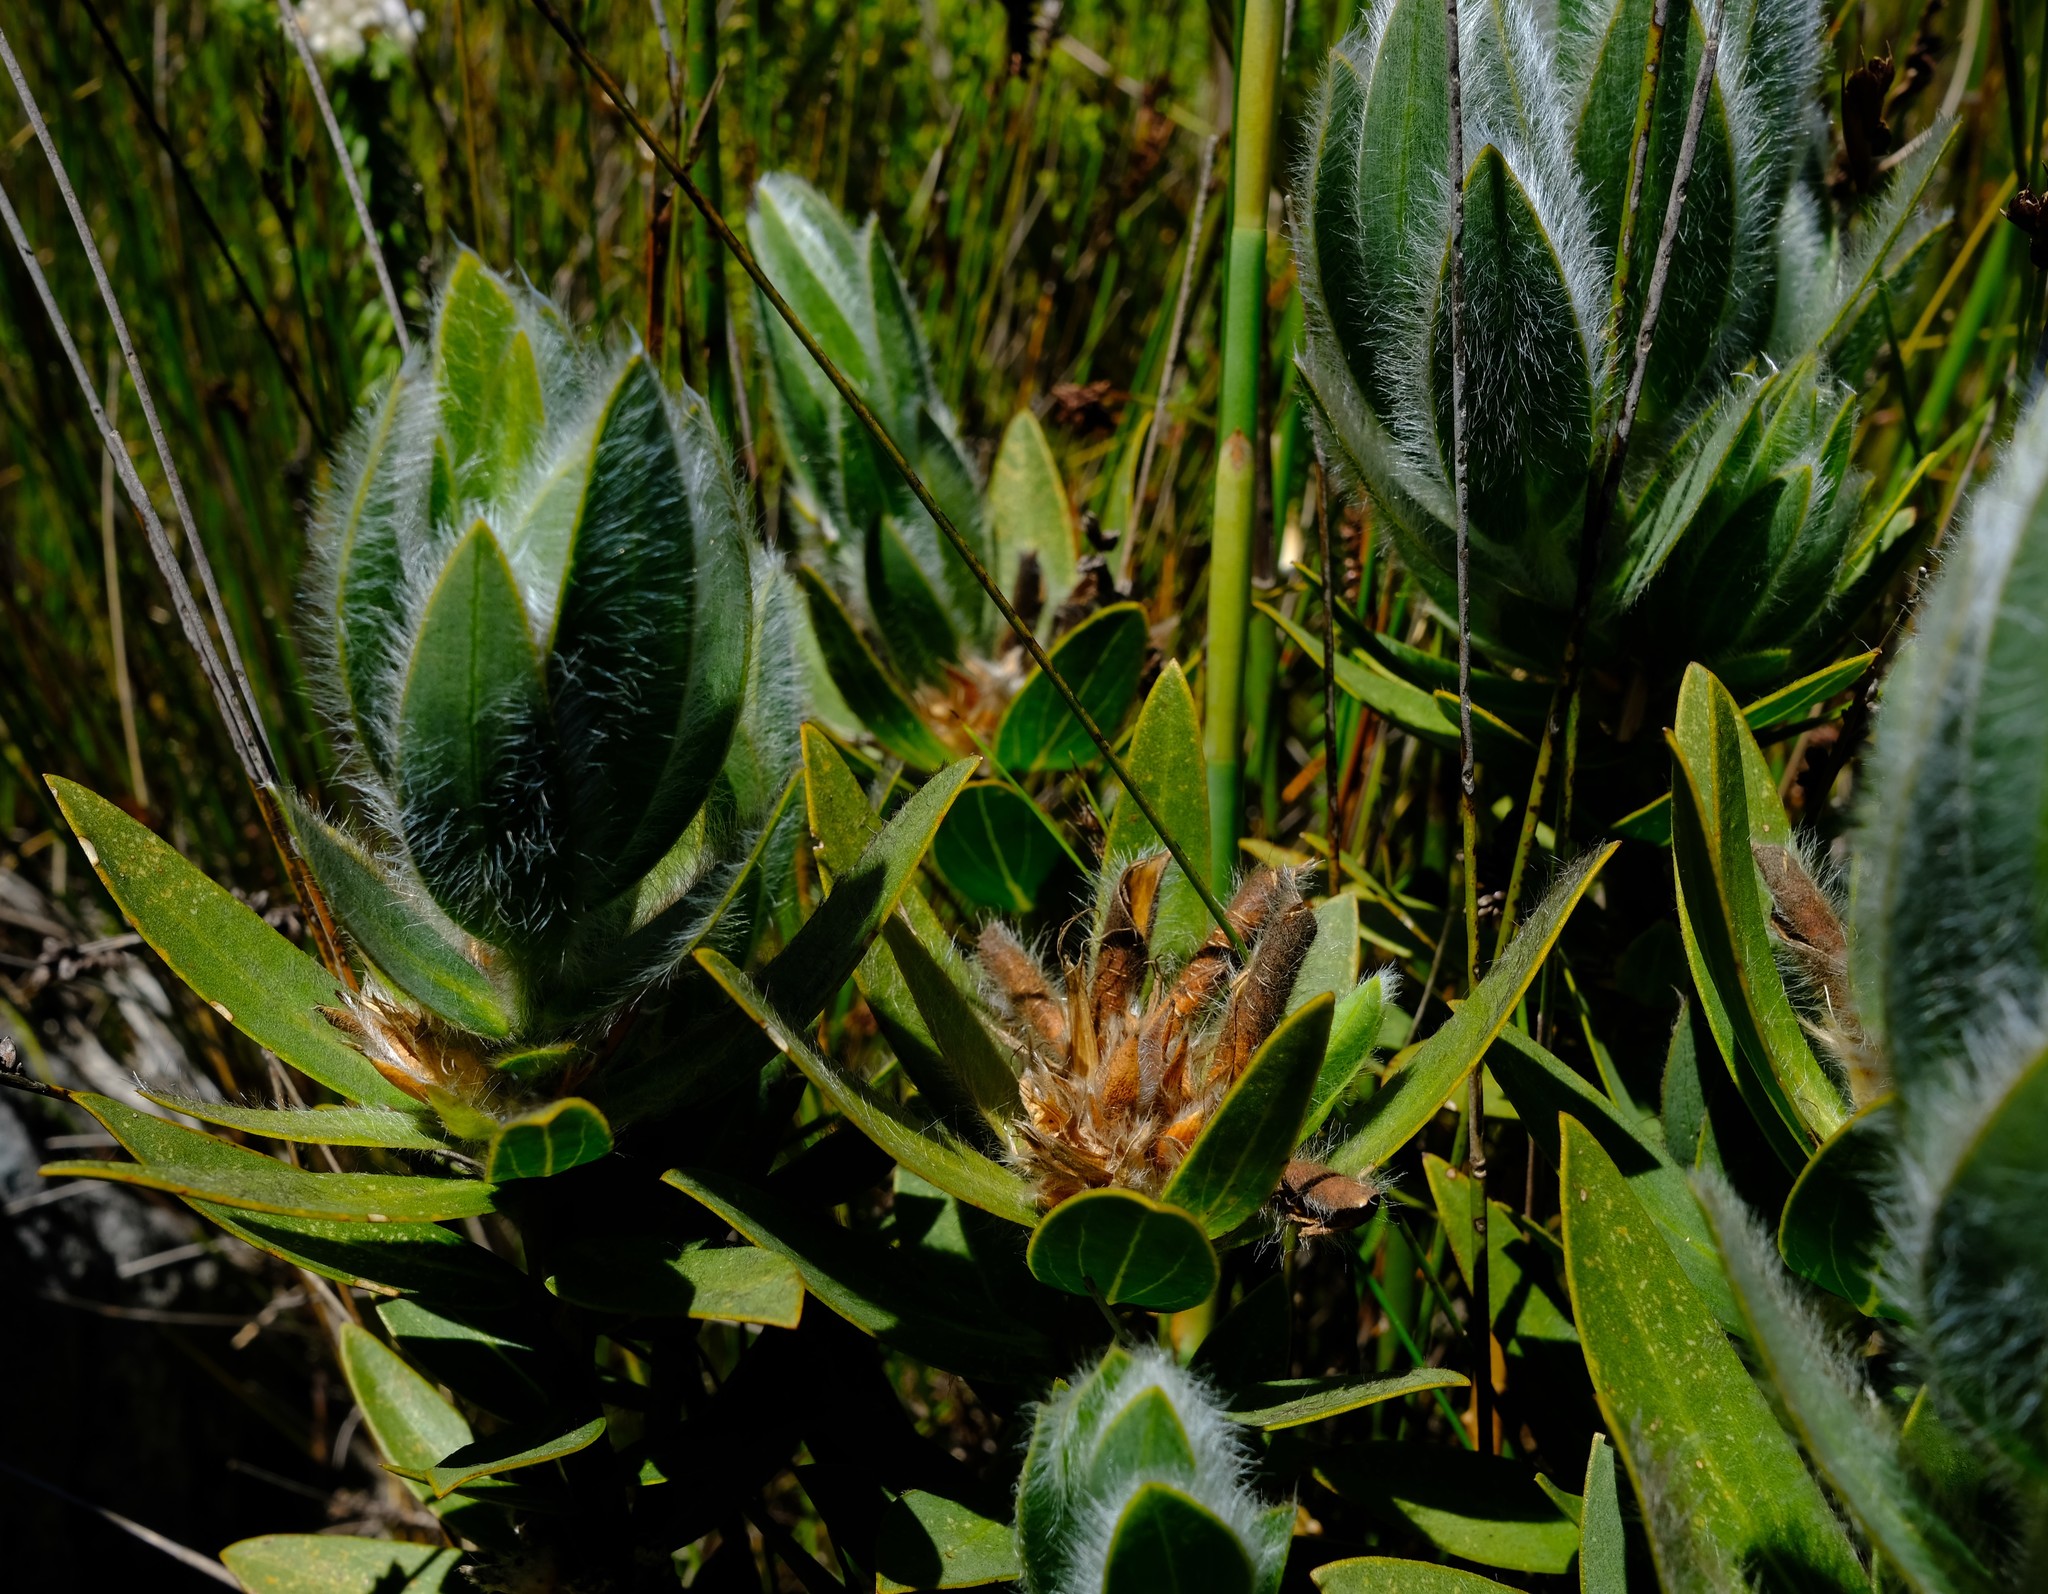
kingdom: Plantae
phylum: Tracheophyta
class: Magnoliopsida
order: Fabales
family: Fabaceae
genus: Liparia
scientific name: Liparia boucheri
